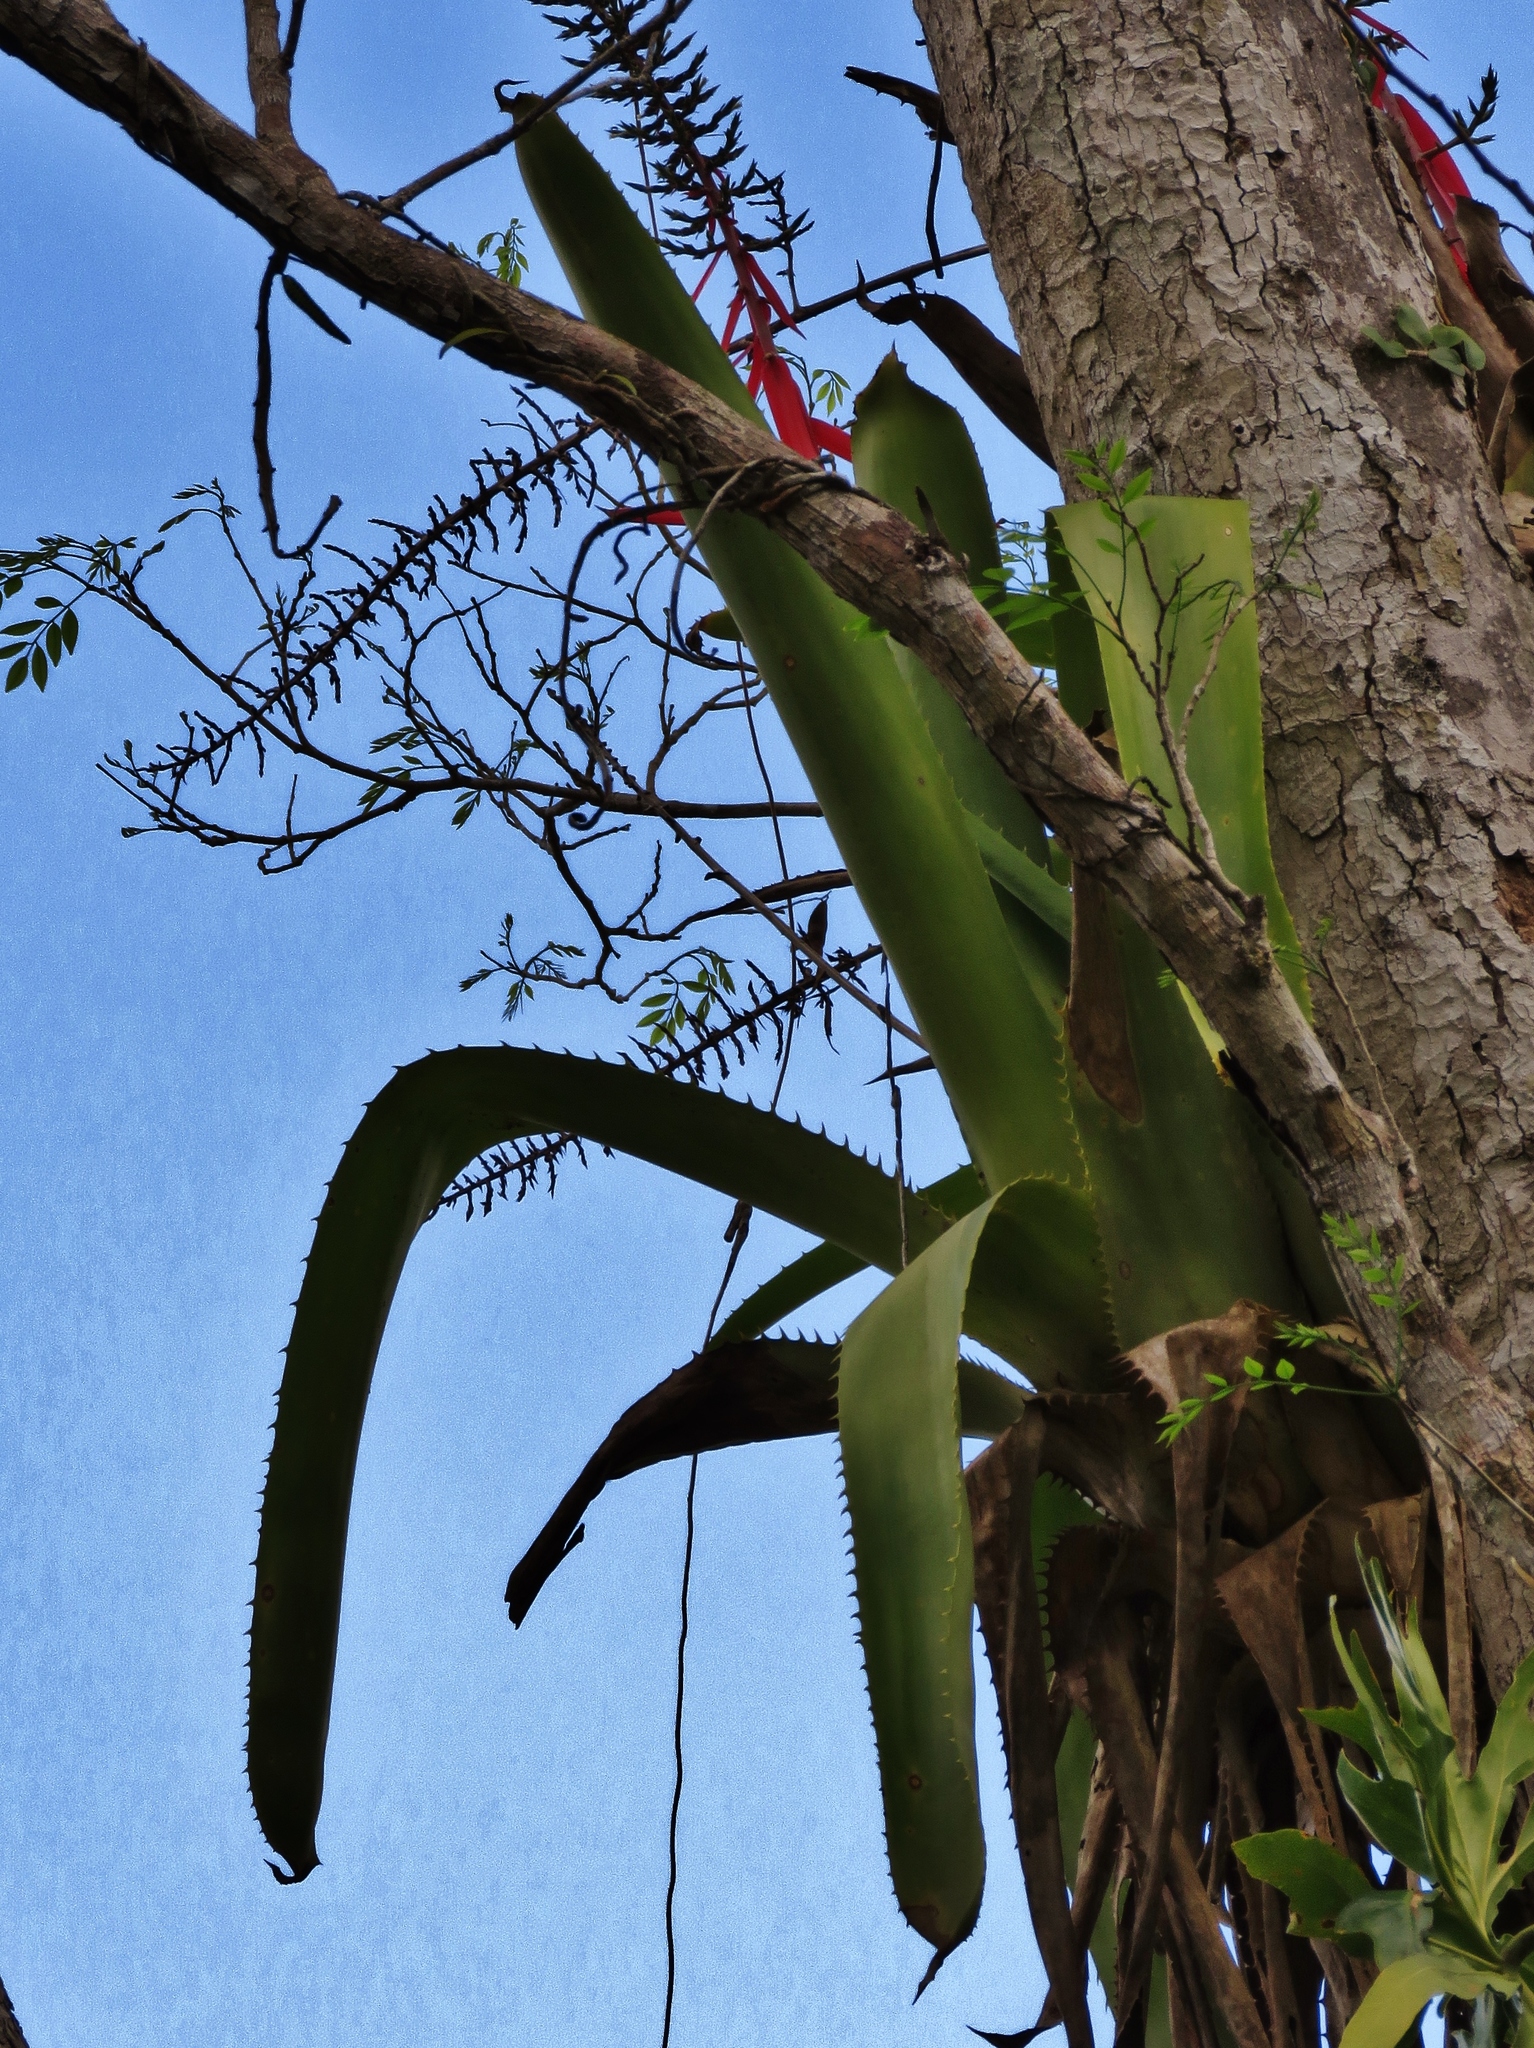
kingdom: Plantae
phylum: Tracheophyta
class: Liliopsida
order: Poales
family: Bromeliaceae
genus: Aechmea
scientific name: Aechmea bracteata
